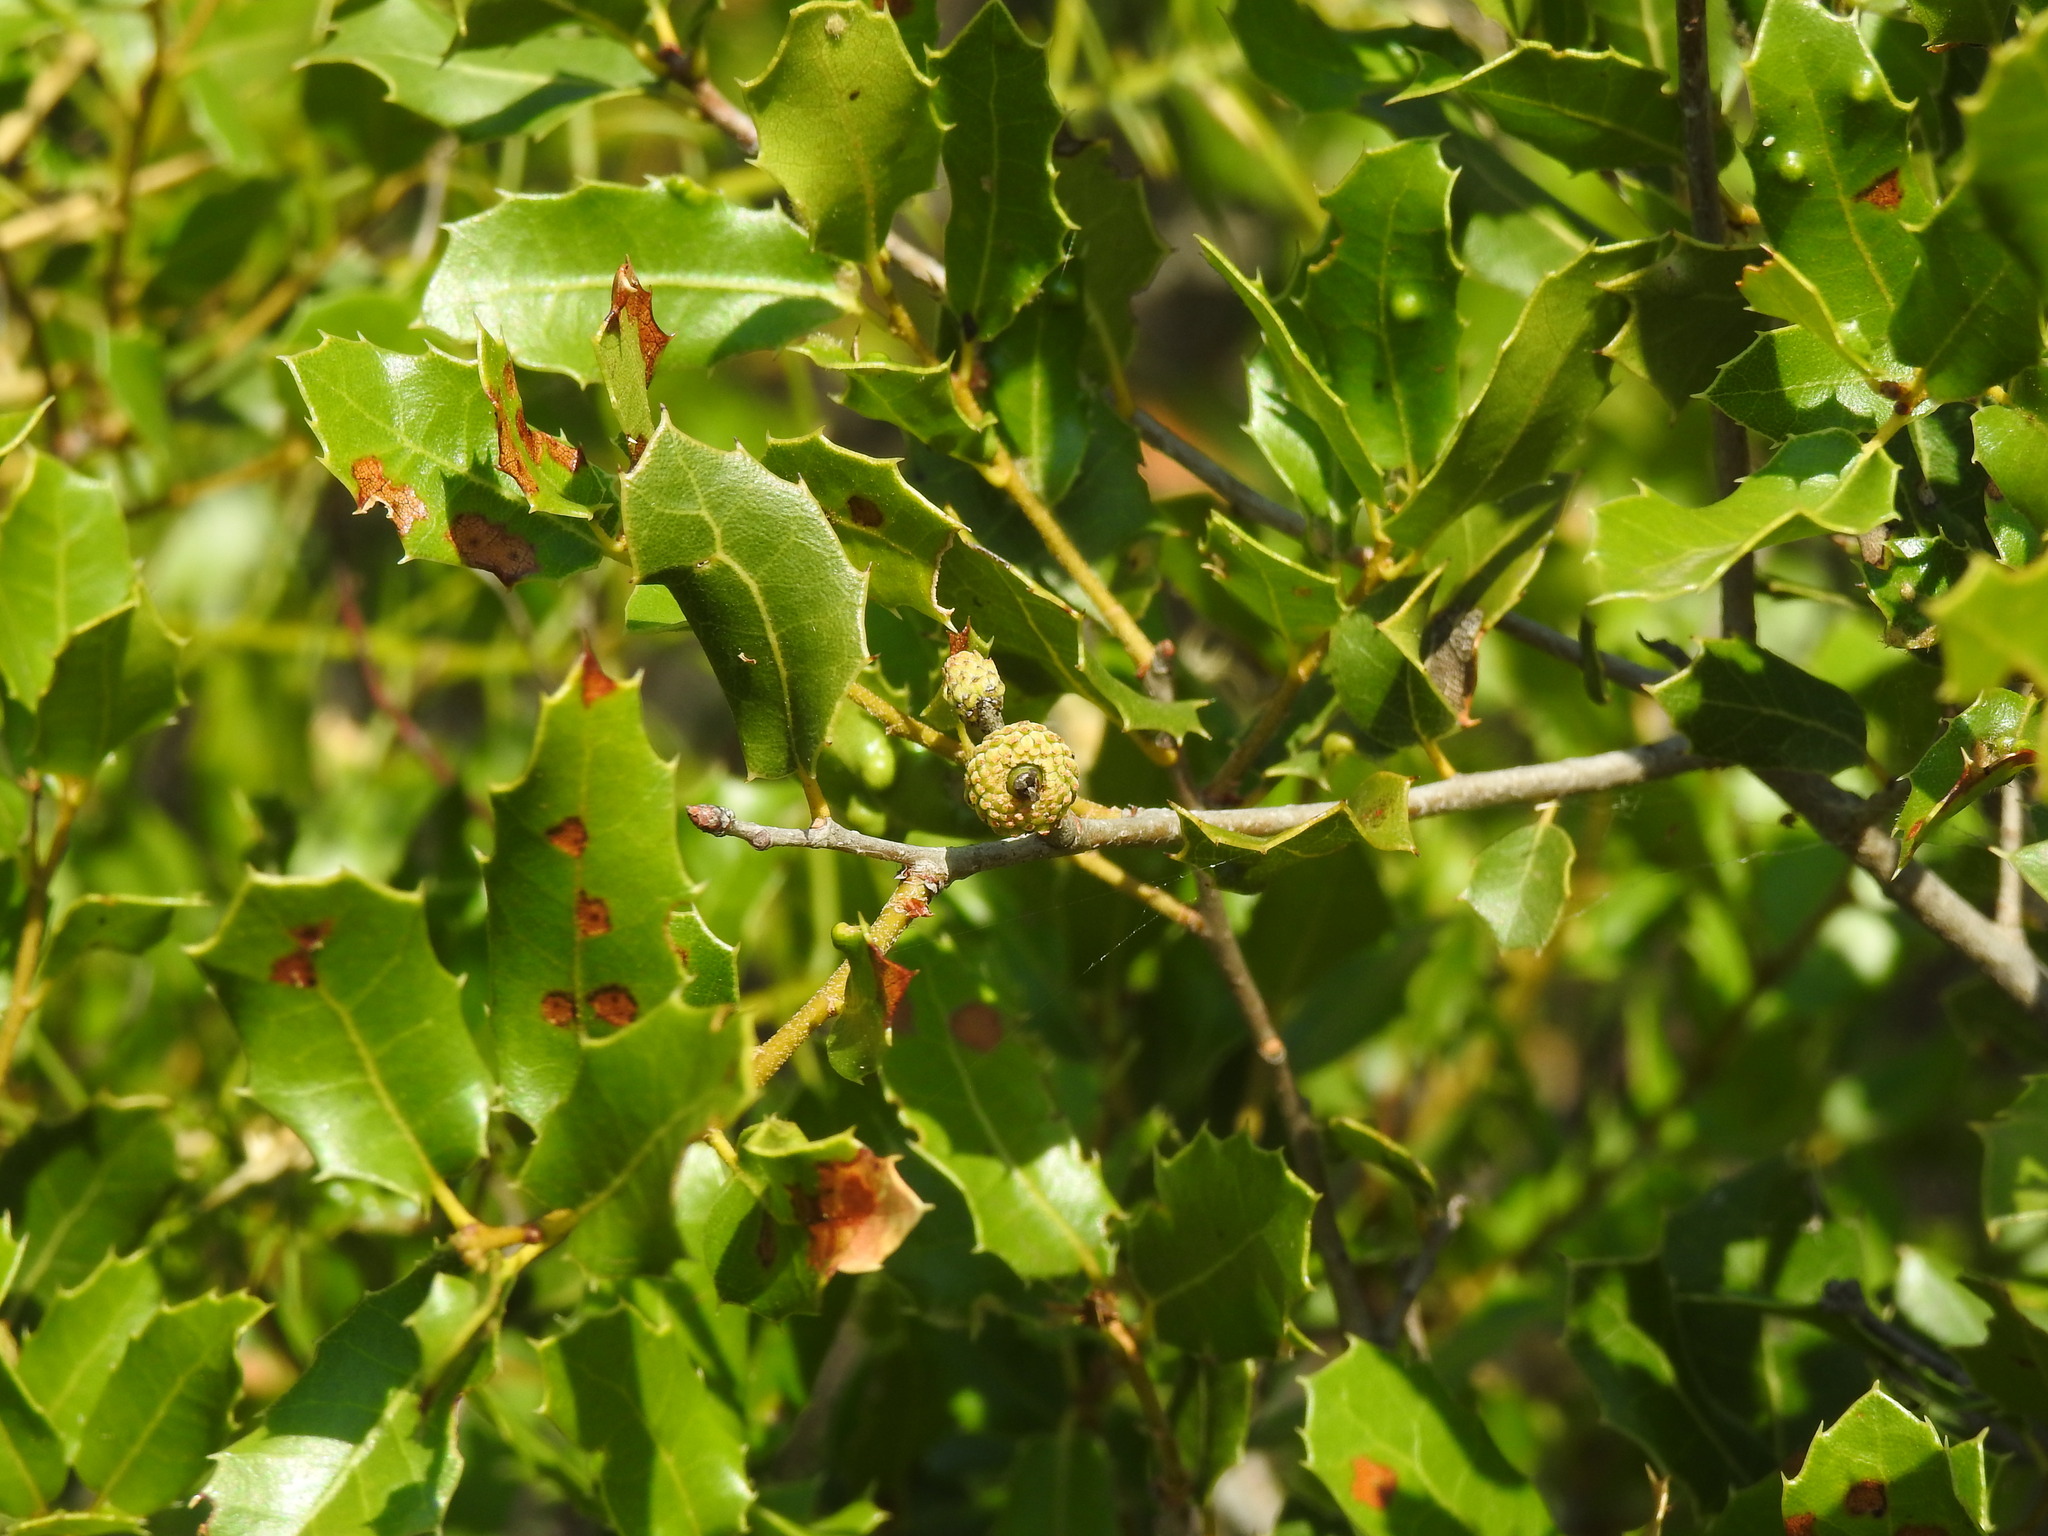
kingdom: Plantae
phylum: Tracheophyta
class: Magnoliopsida
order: Fagales
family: Fagaceae
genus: Quercus
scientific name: Quercus coccifera
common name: Kermes oak
